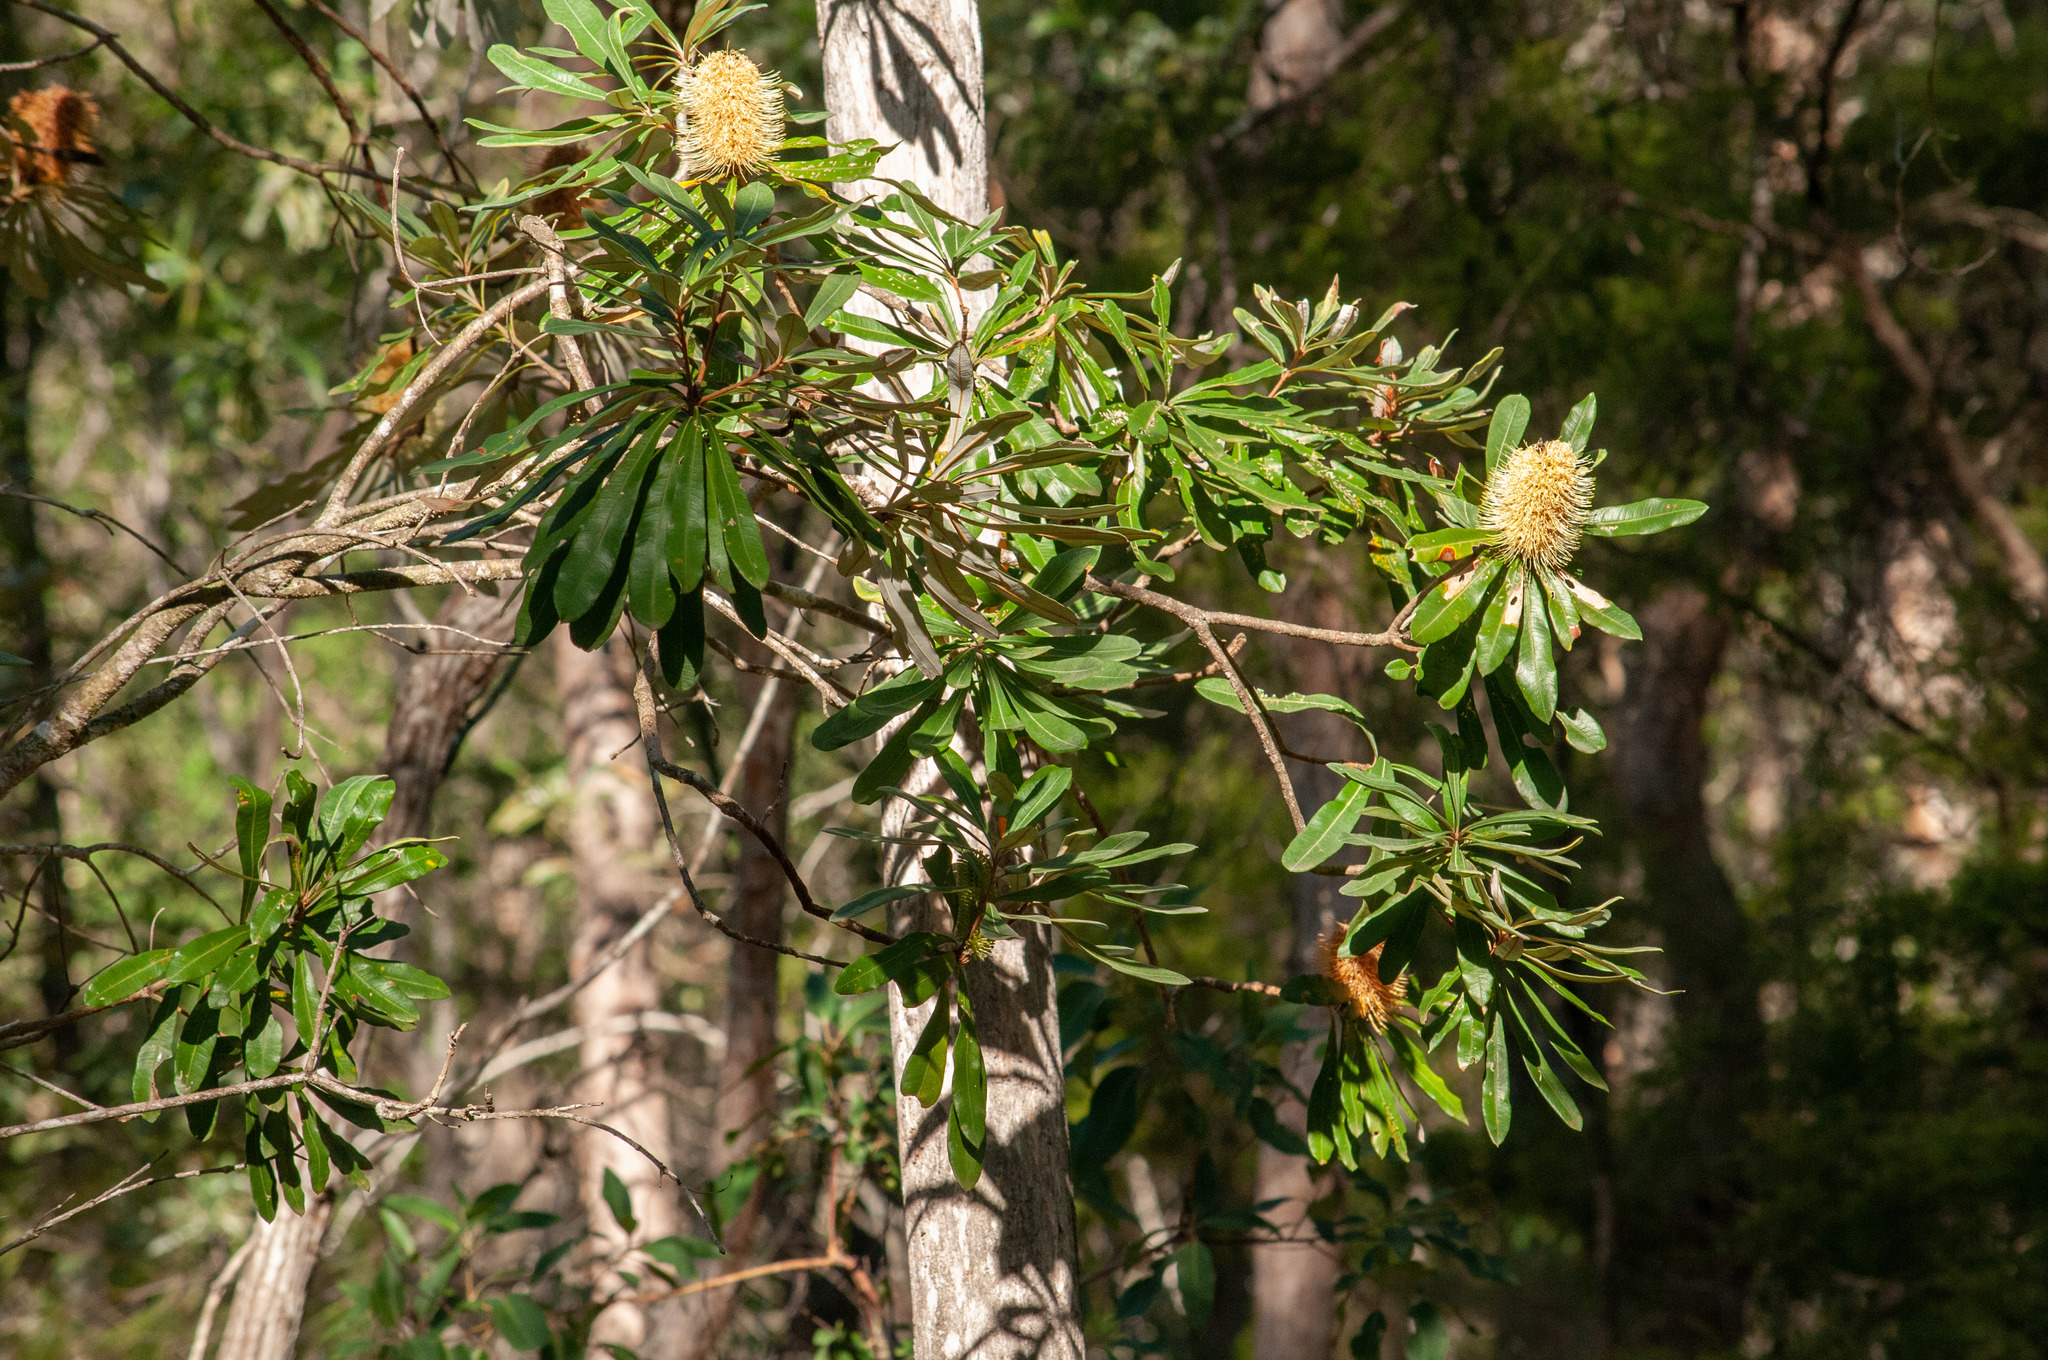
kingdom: Plantae
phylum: Tracheophyta
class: Magnoliopsida
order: Proteales
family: Proteaceae
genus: Banksia
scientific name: Banksia integrifolia
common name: White-honeysuckle
